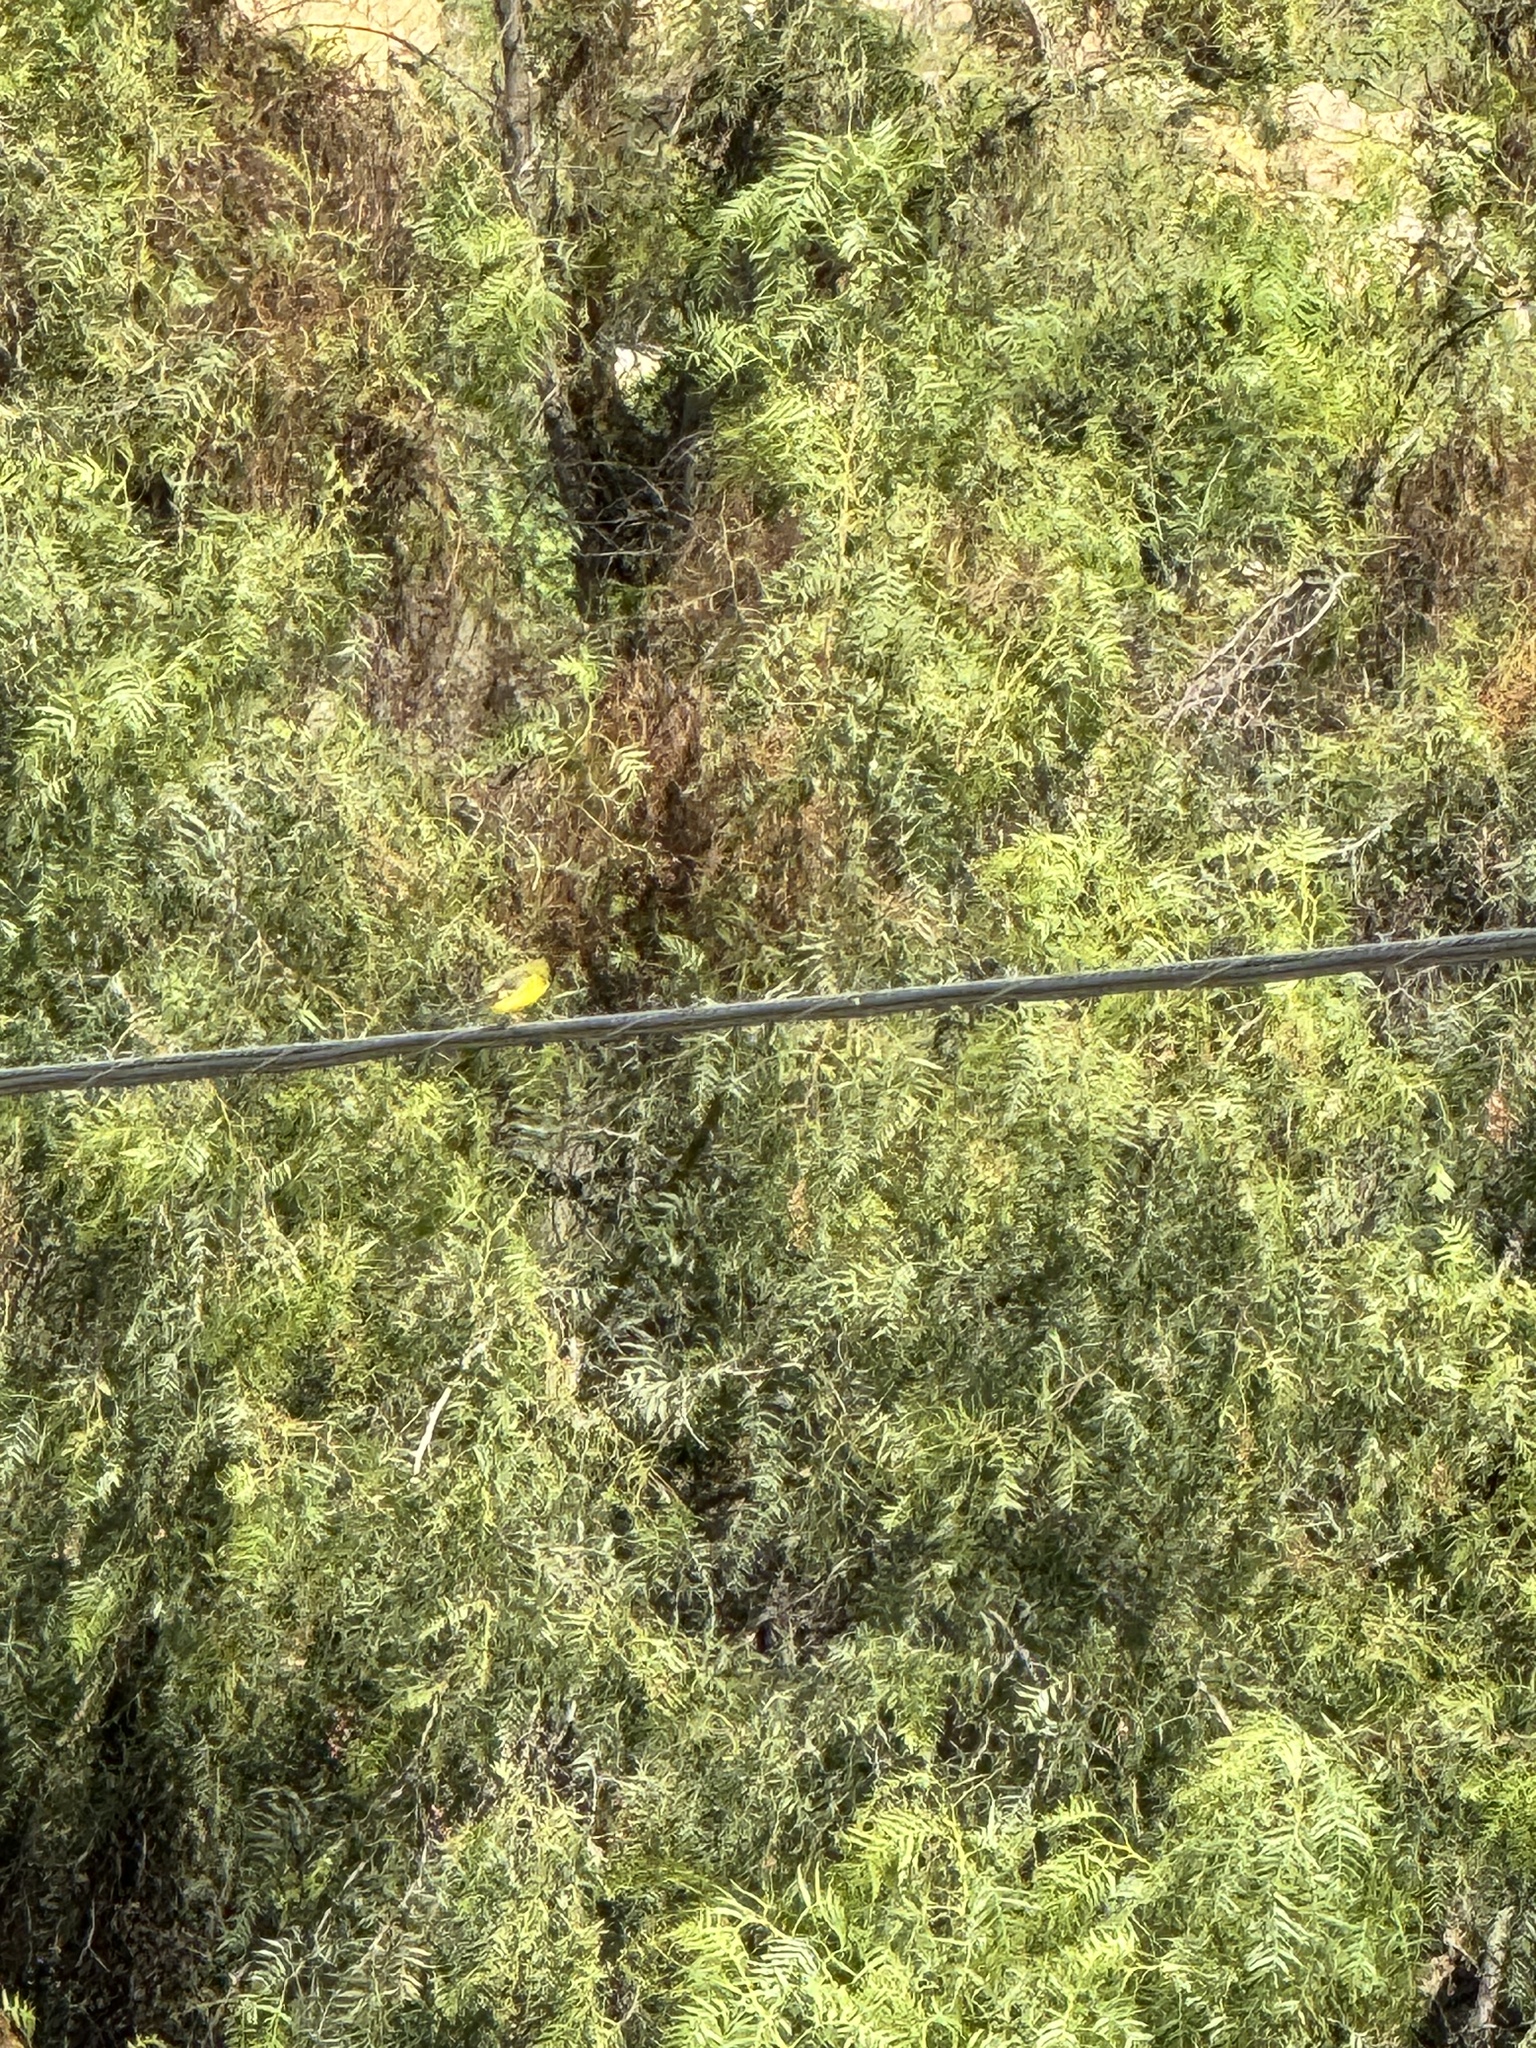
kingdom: Animalia
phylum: Chordata
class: Aves
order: Passeriformes
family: Fringillidae
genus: Spinus
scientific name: Spinus psaltria
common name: Lesser goldfinch
